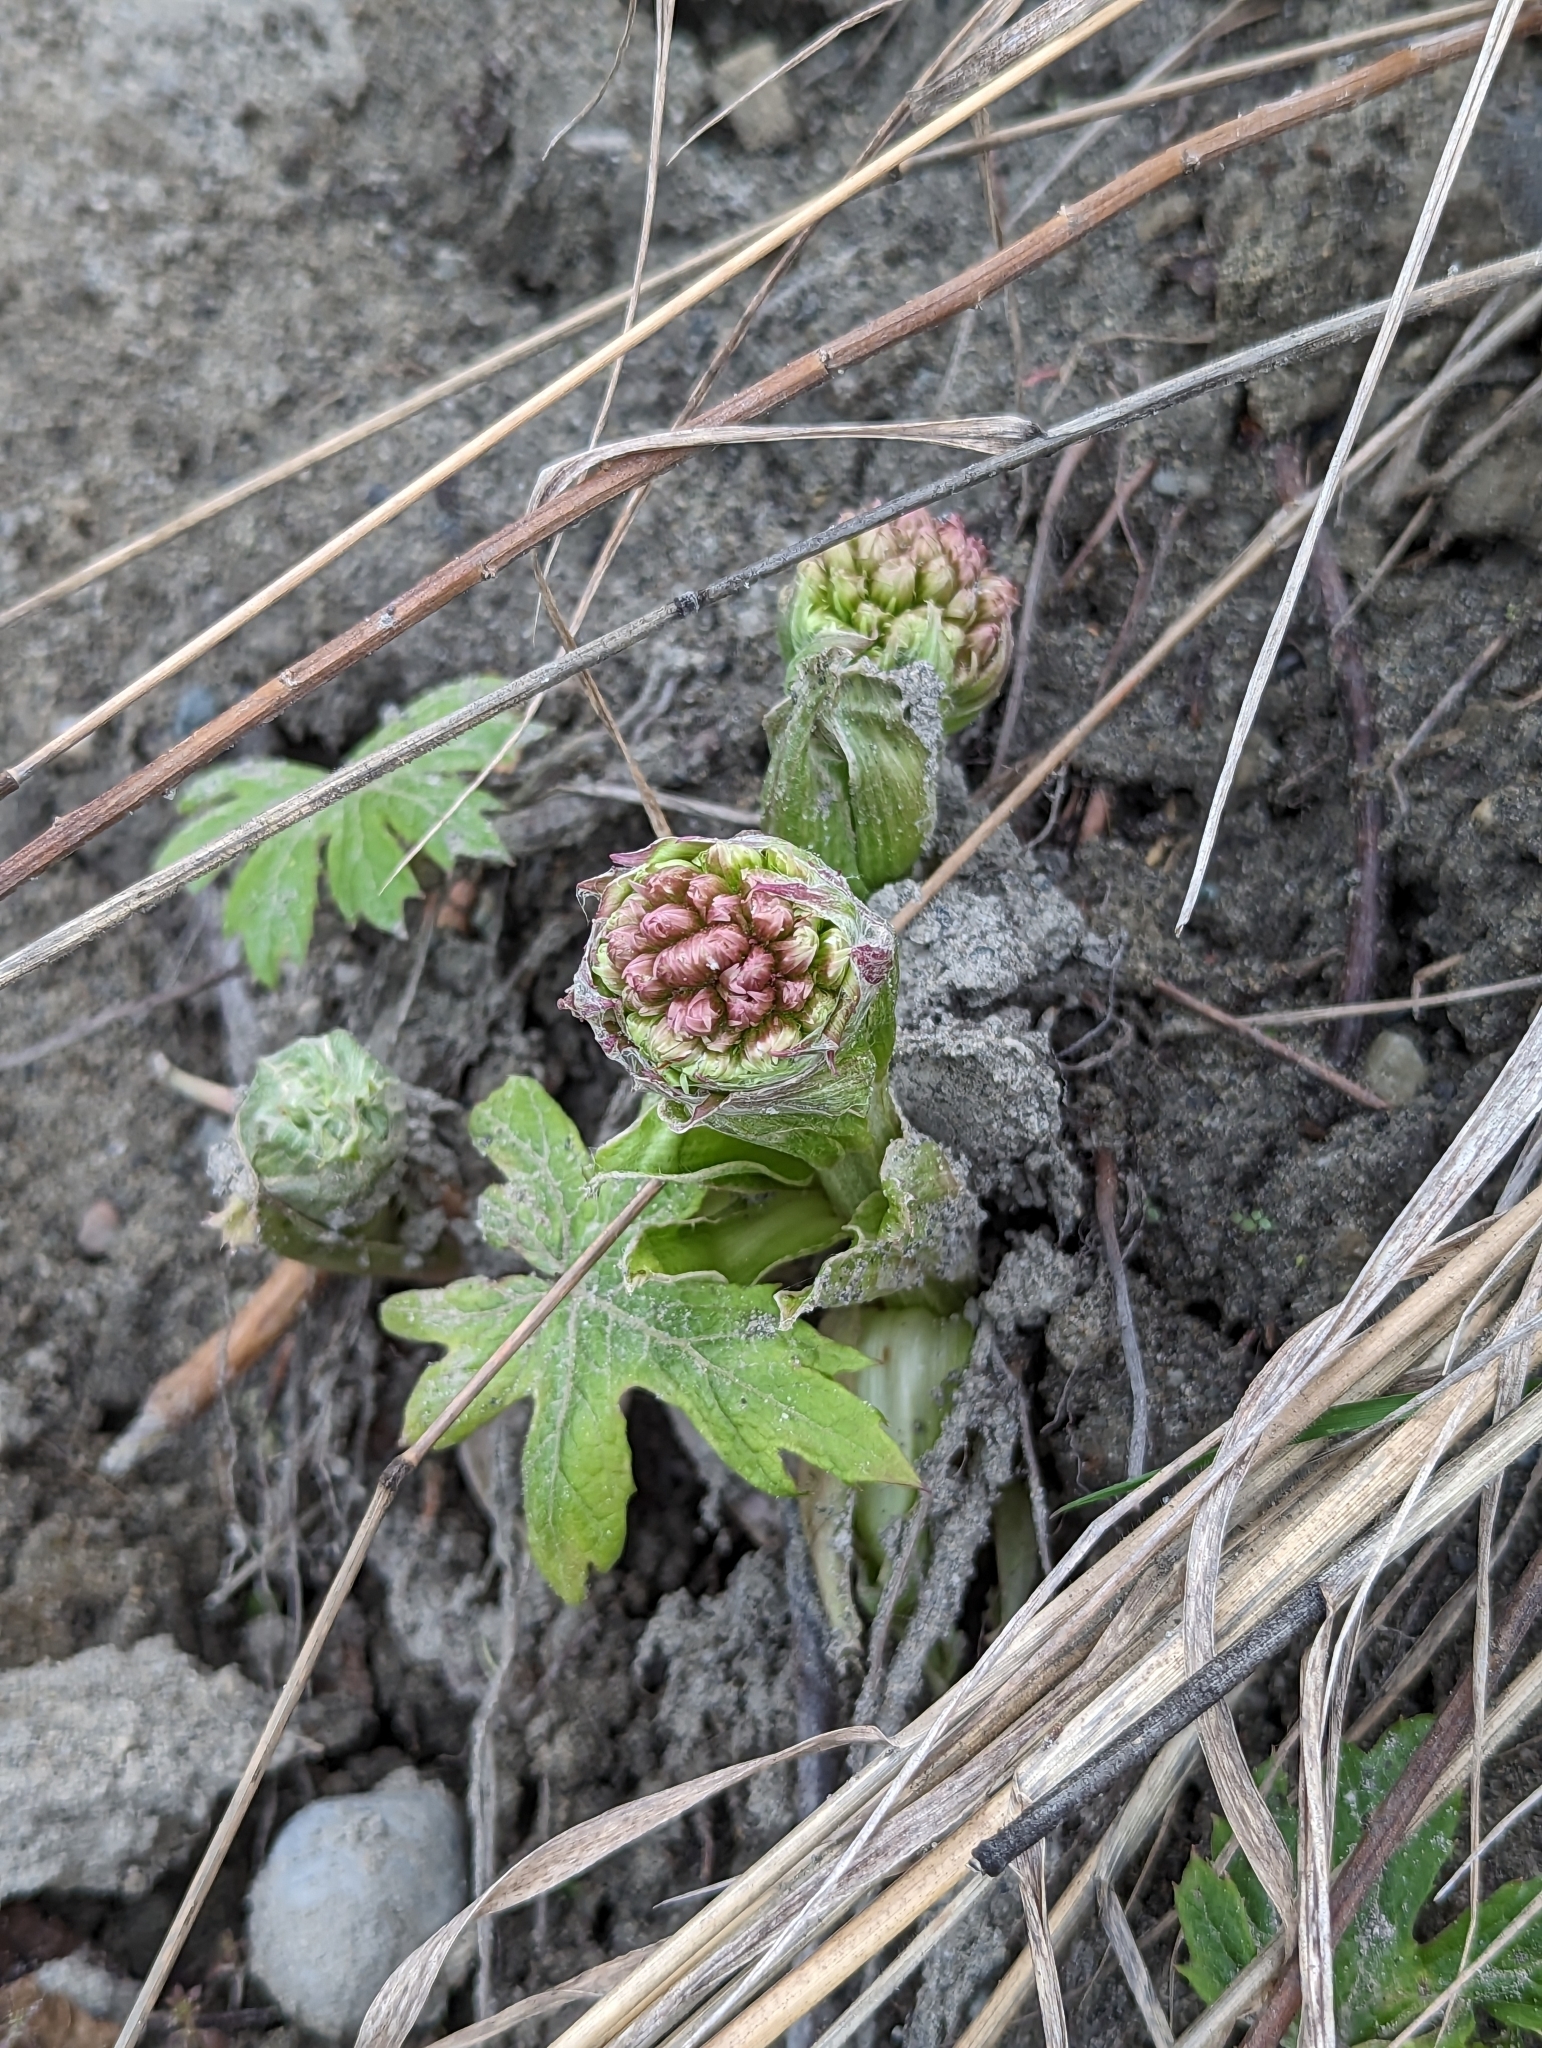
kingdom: Plantae
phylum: Tracheophyta
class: Magnoliopsida
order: Asterales
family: Asteraceae
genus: Petasites
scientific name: Petasites frigidus
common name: Arctic butterbur
